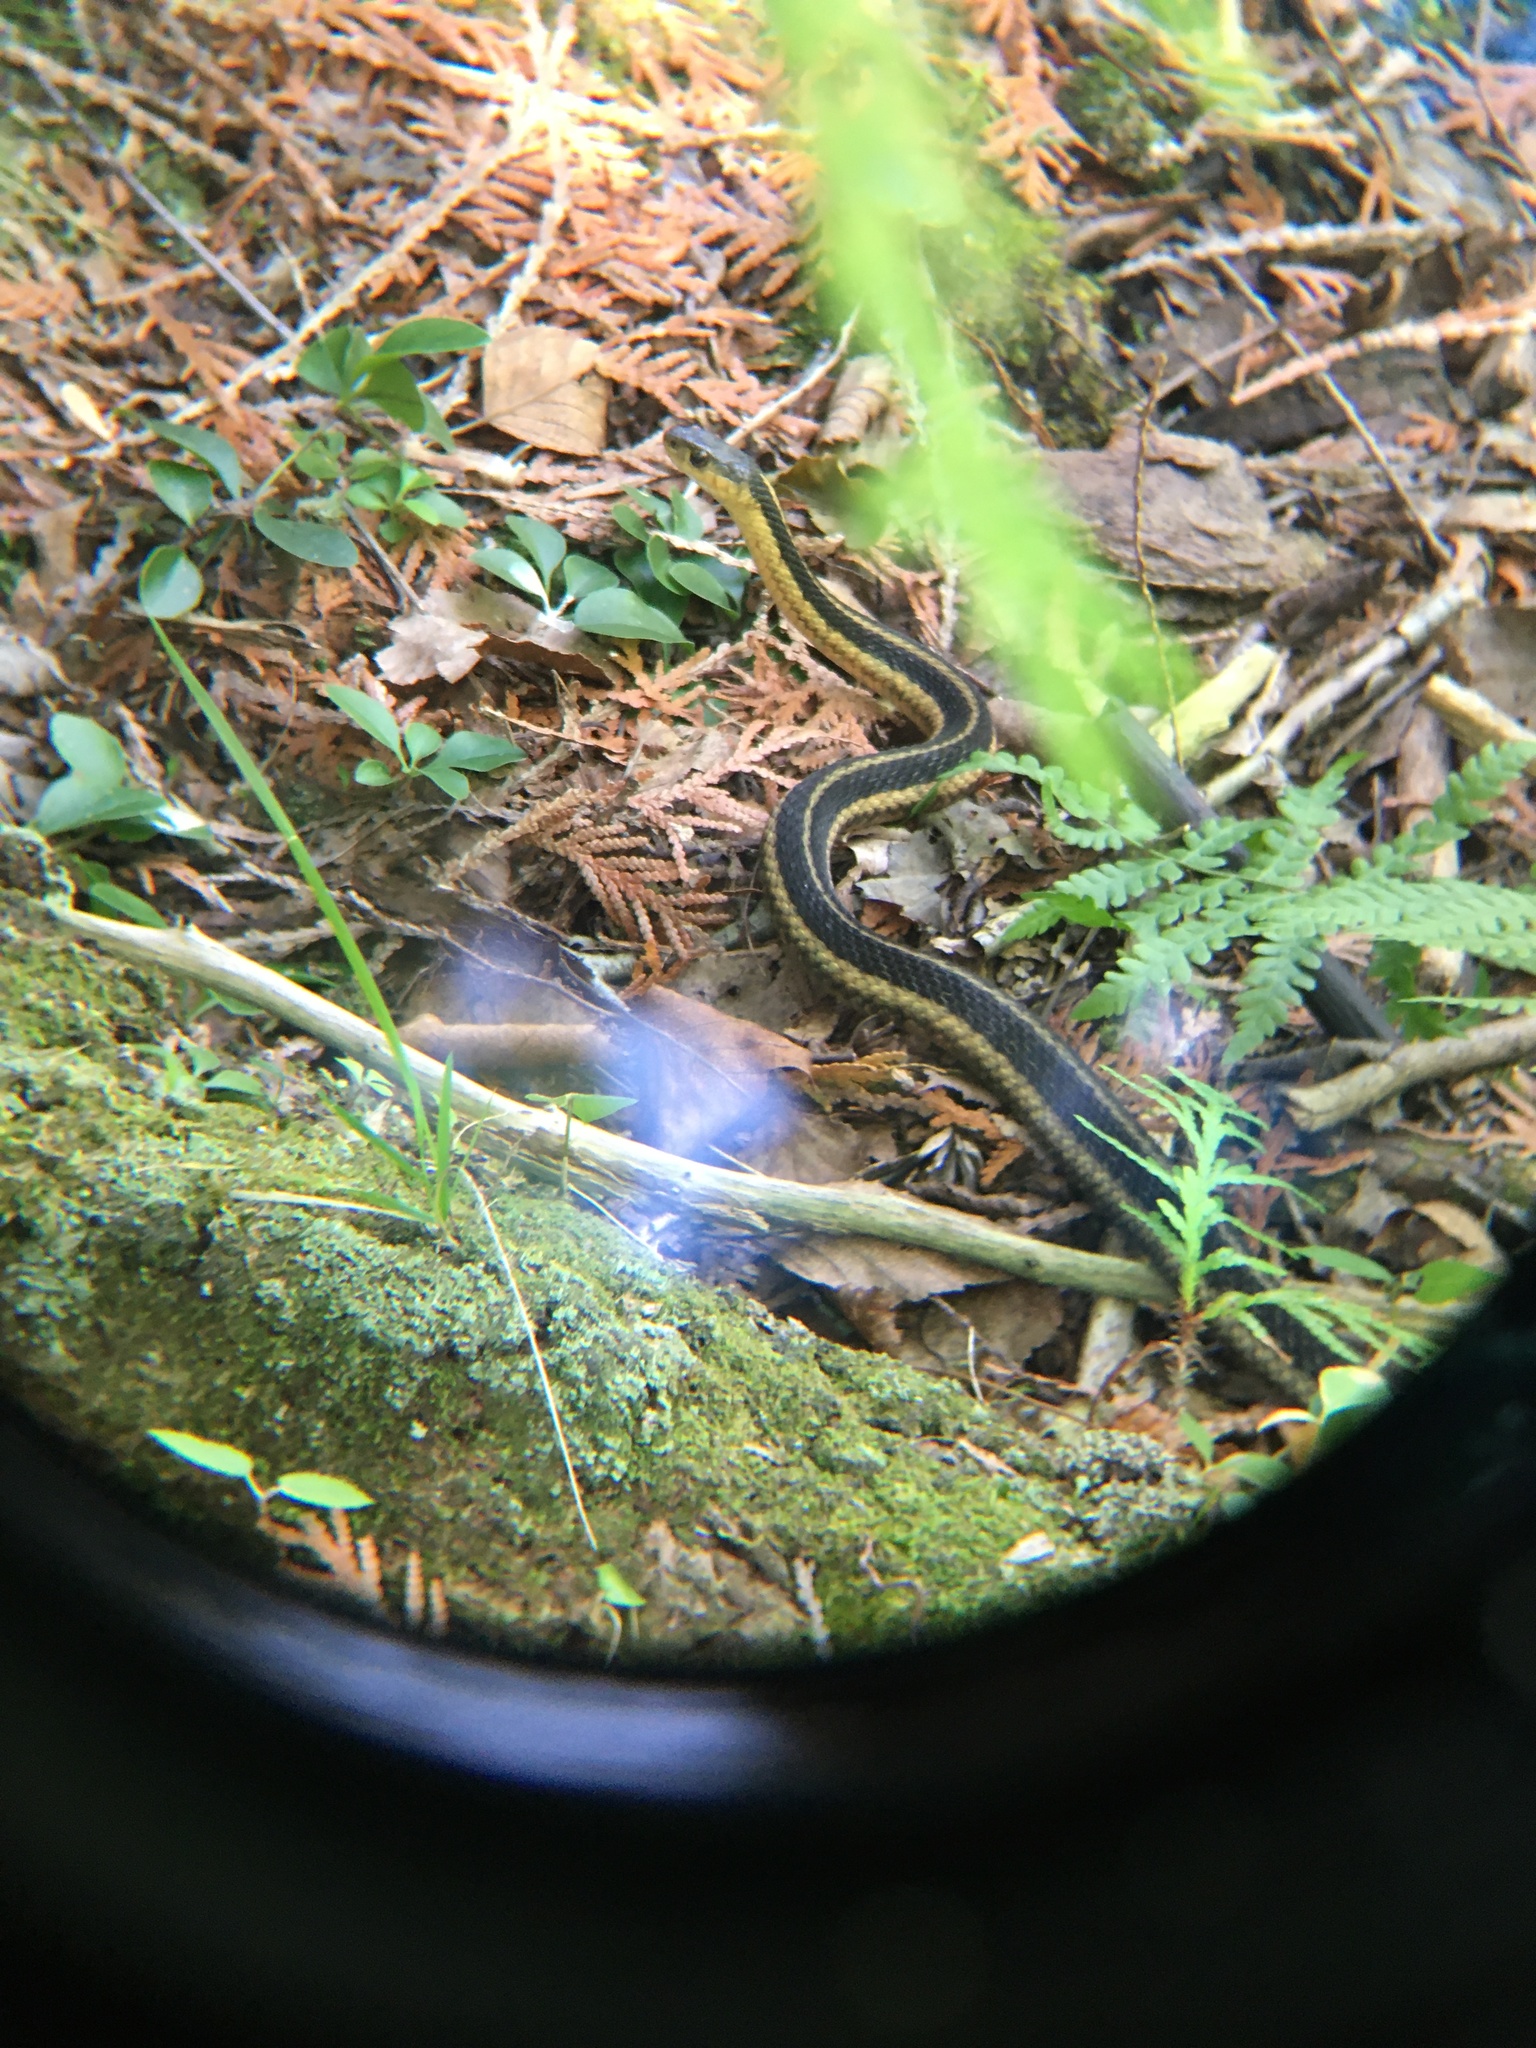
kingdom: Animalia
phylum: Chordata
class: Squamata
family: Colubridae
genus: Thamnophis
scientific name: Thamnophis sirtalis
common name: Common garter snake
